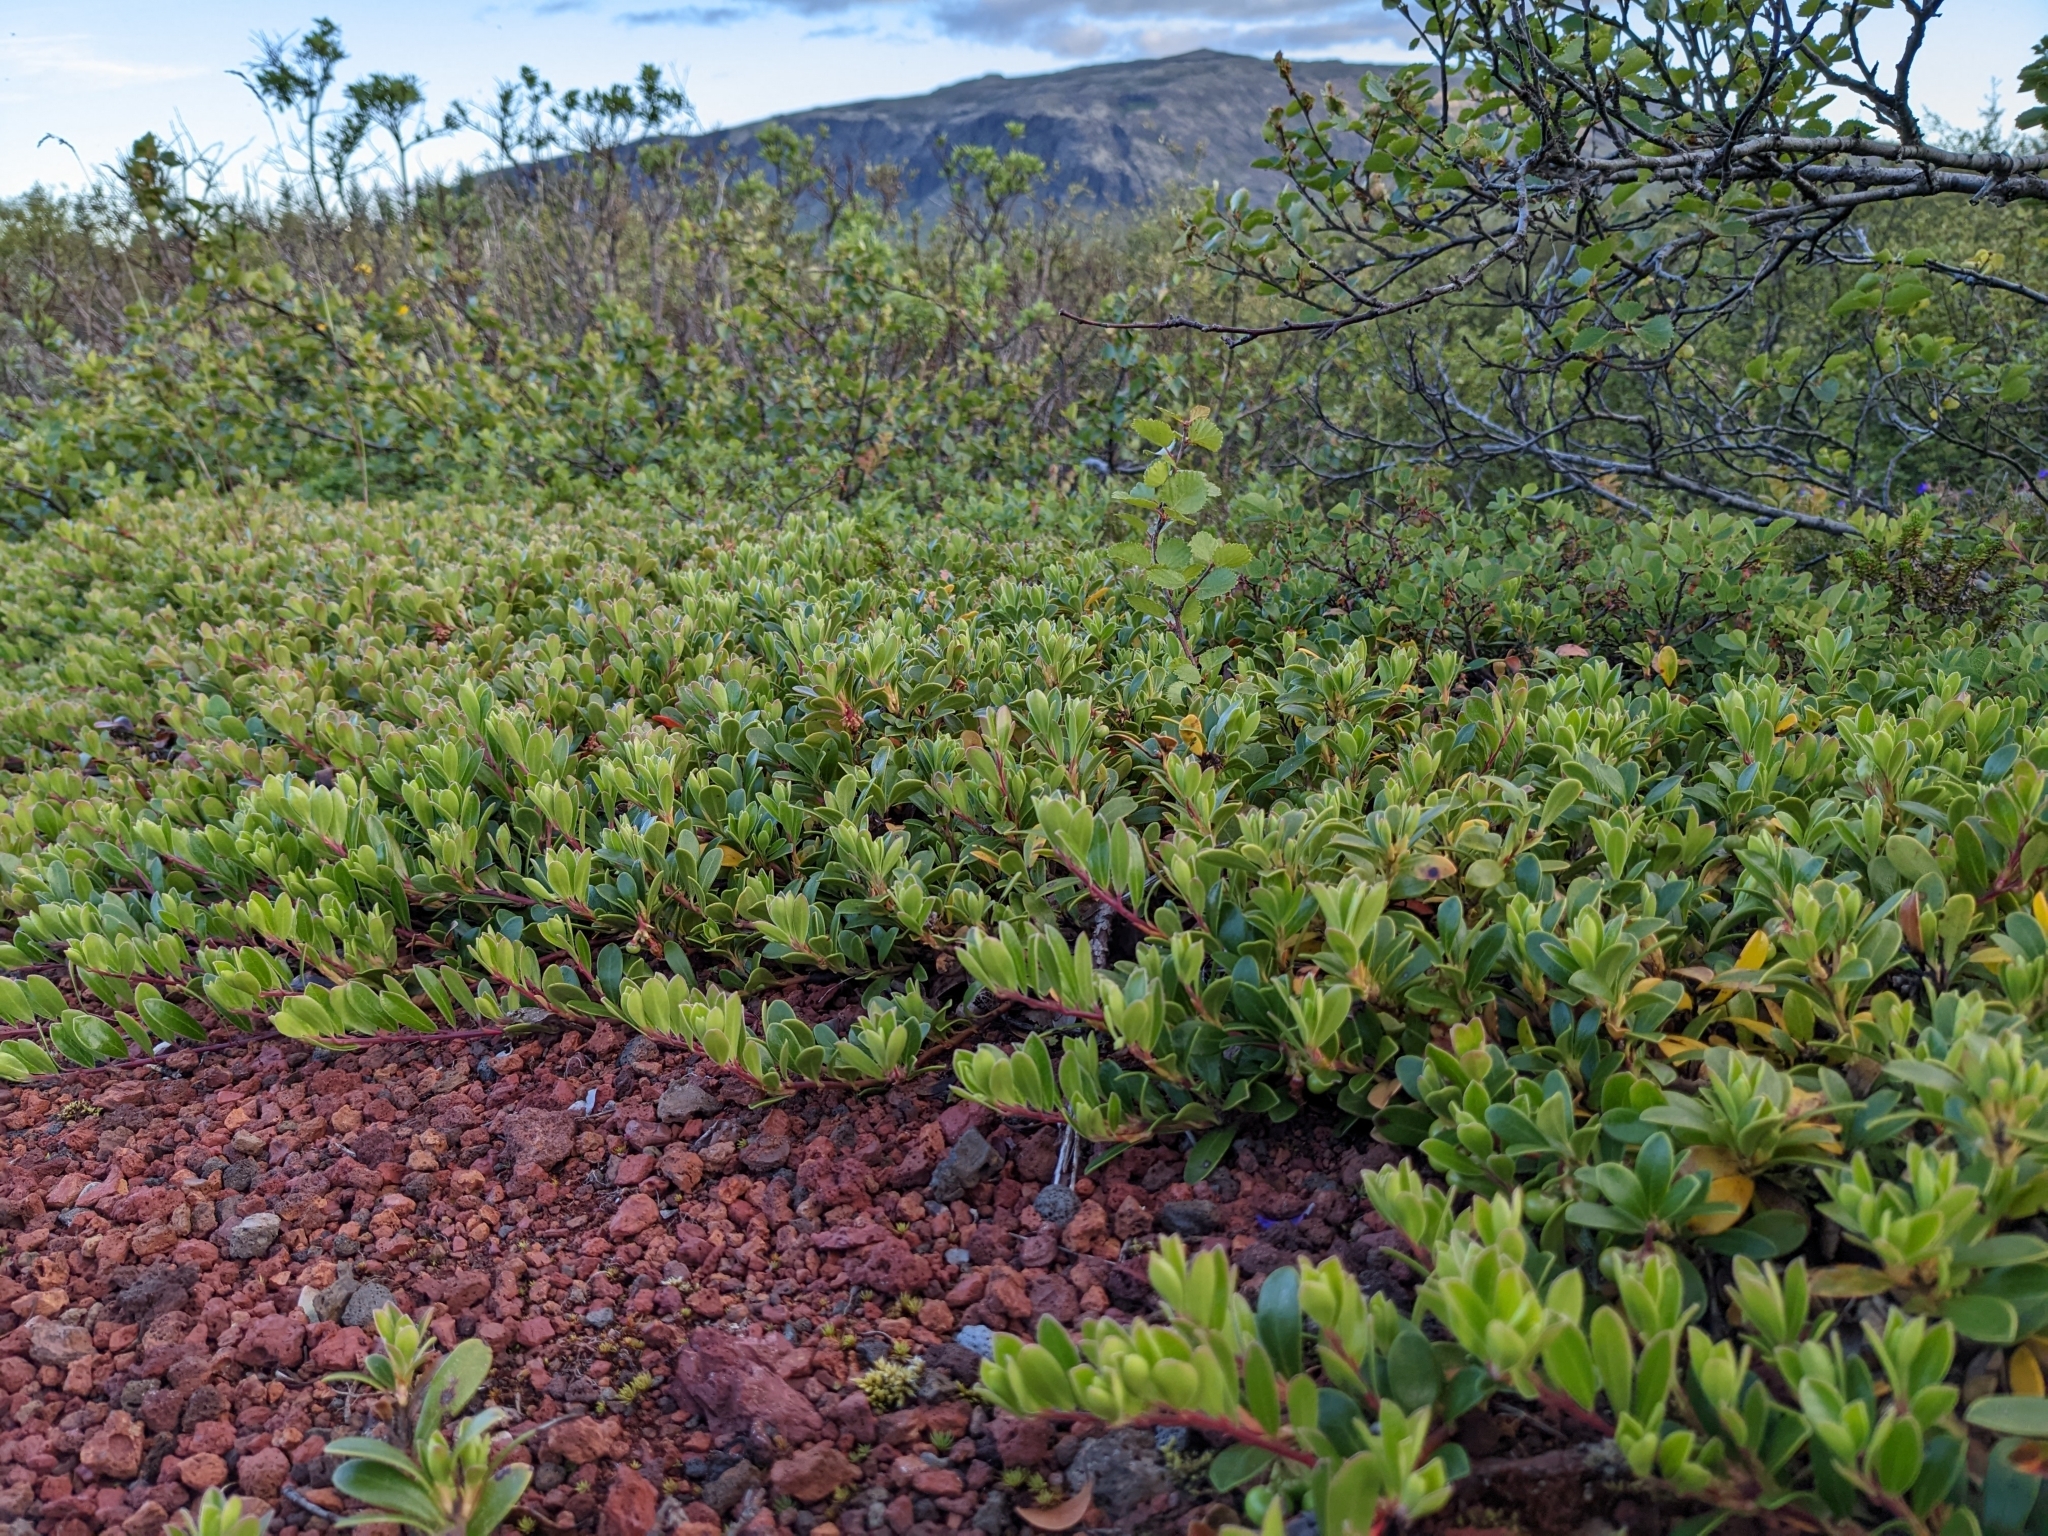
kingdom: Plantae
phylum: Tracheophyta
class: Magnoliopsida
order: Ericales
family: Ericaceae
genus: Arctostaphylos
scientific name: Arctostaphylos uva-ursi
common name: Bearberry
